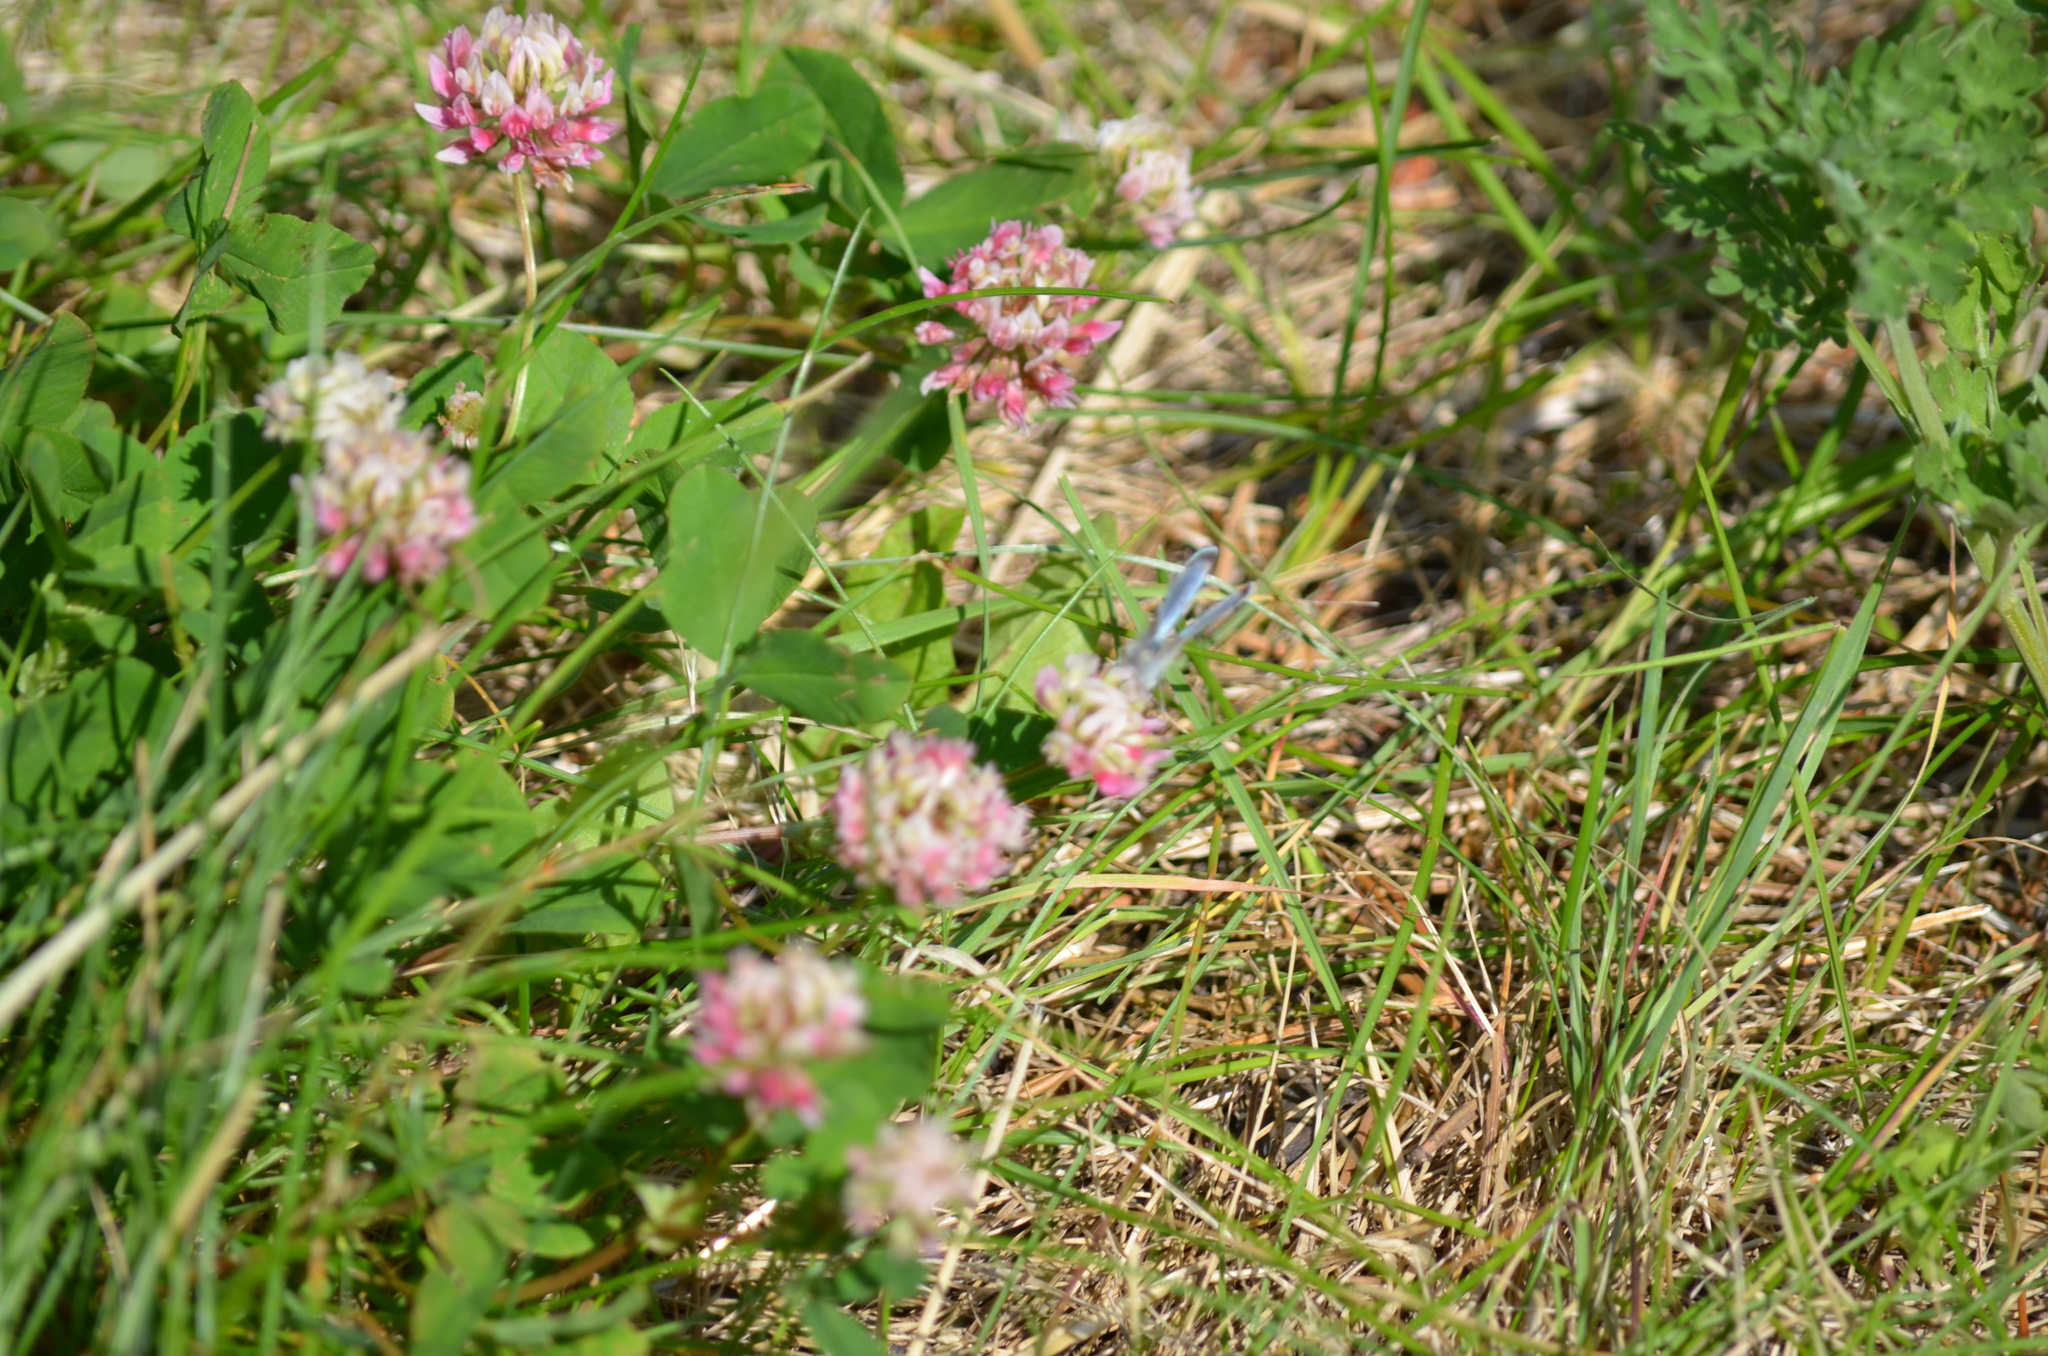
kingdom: Animalia
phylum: Arthropoda
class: Insecta
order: Lepidoptera
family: Lycaenidae
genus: Icaricia
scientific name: Icaricia saepiolus
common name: Greenish blue
